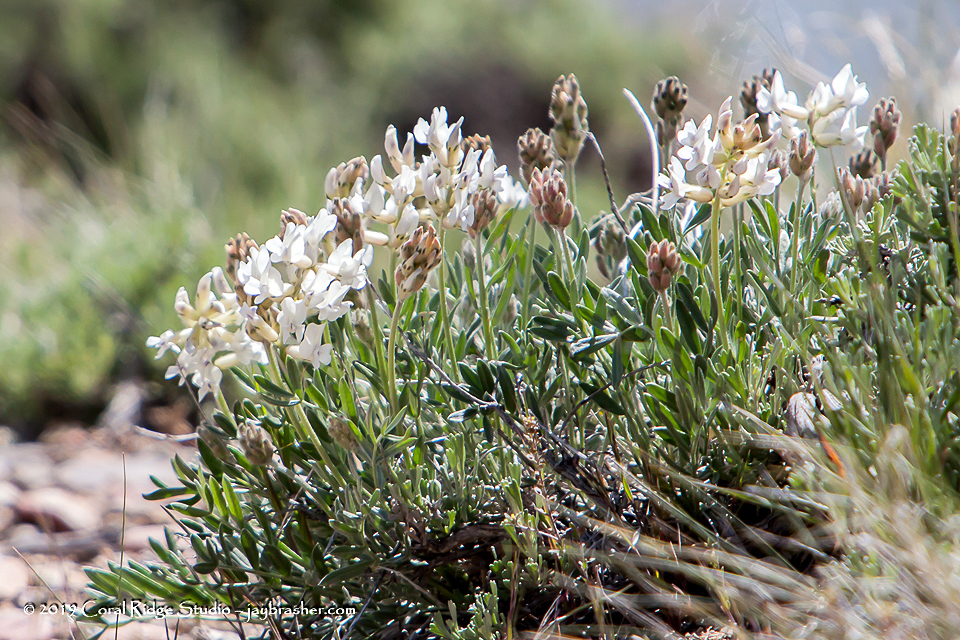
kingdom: Plantae
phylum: Tracheophyta
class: Magnoliopsida
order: Fabales
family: Fabaceae
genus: Oxytropis
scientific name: Oxytropis sericea
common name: Silky locoweed
